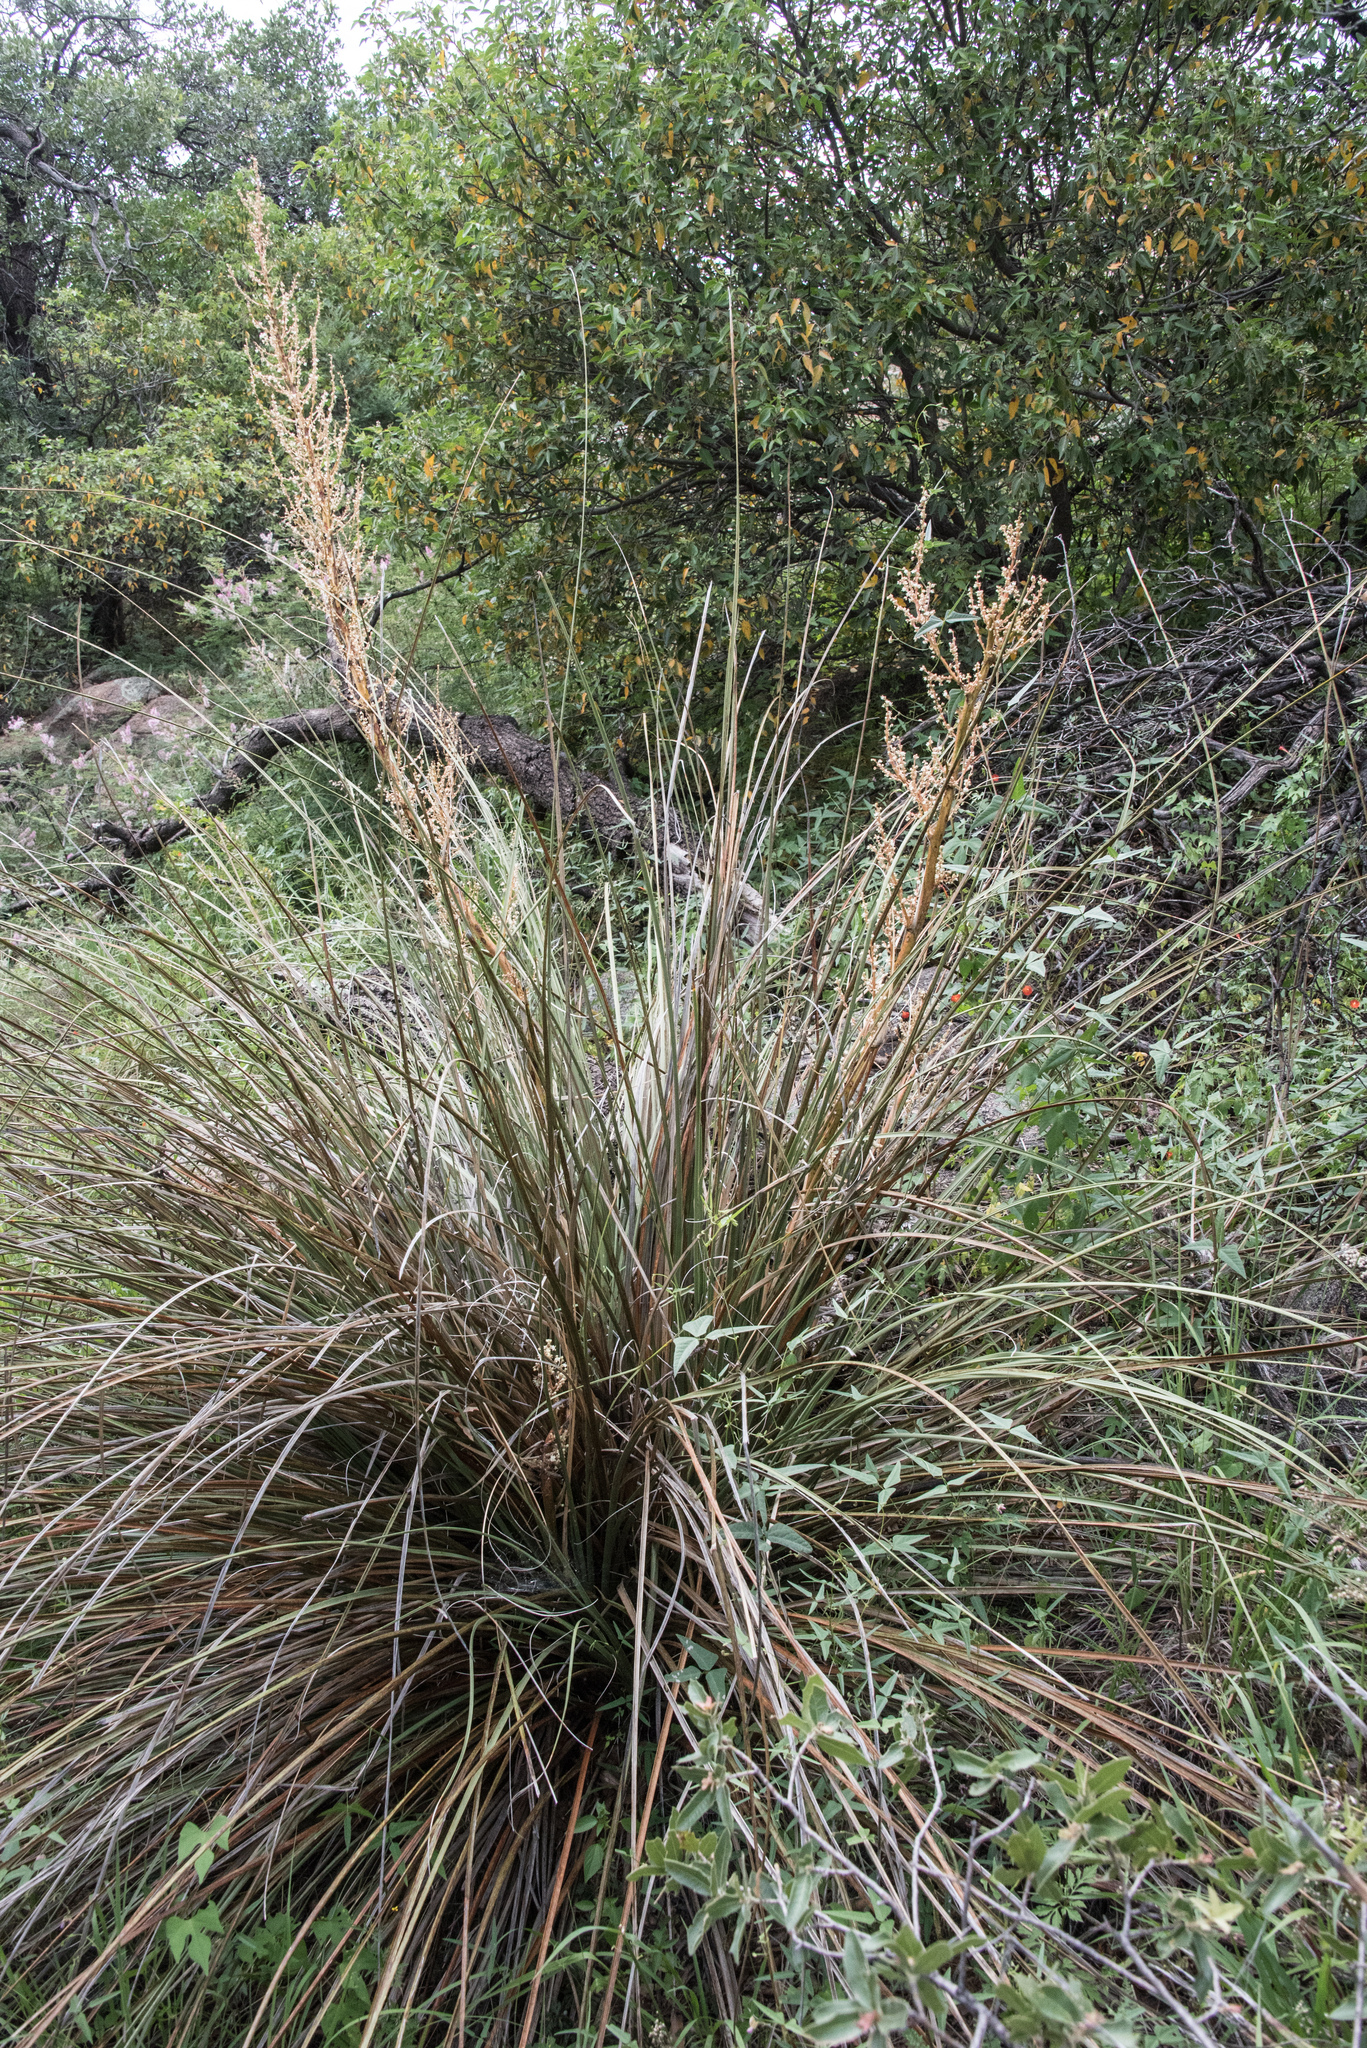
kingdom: Plantae
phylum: Tracheophyta
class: Liliopsida
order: Asparagales
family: Asparagaceae
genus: Nolina
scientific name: Nolina texana
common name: Texas sacahuiste
